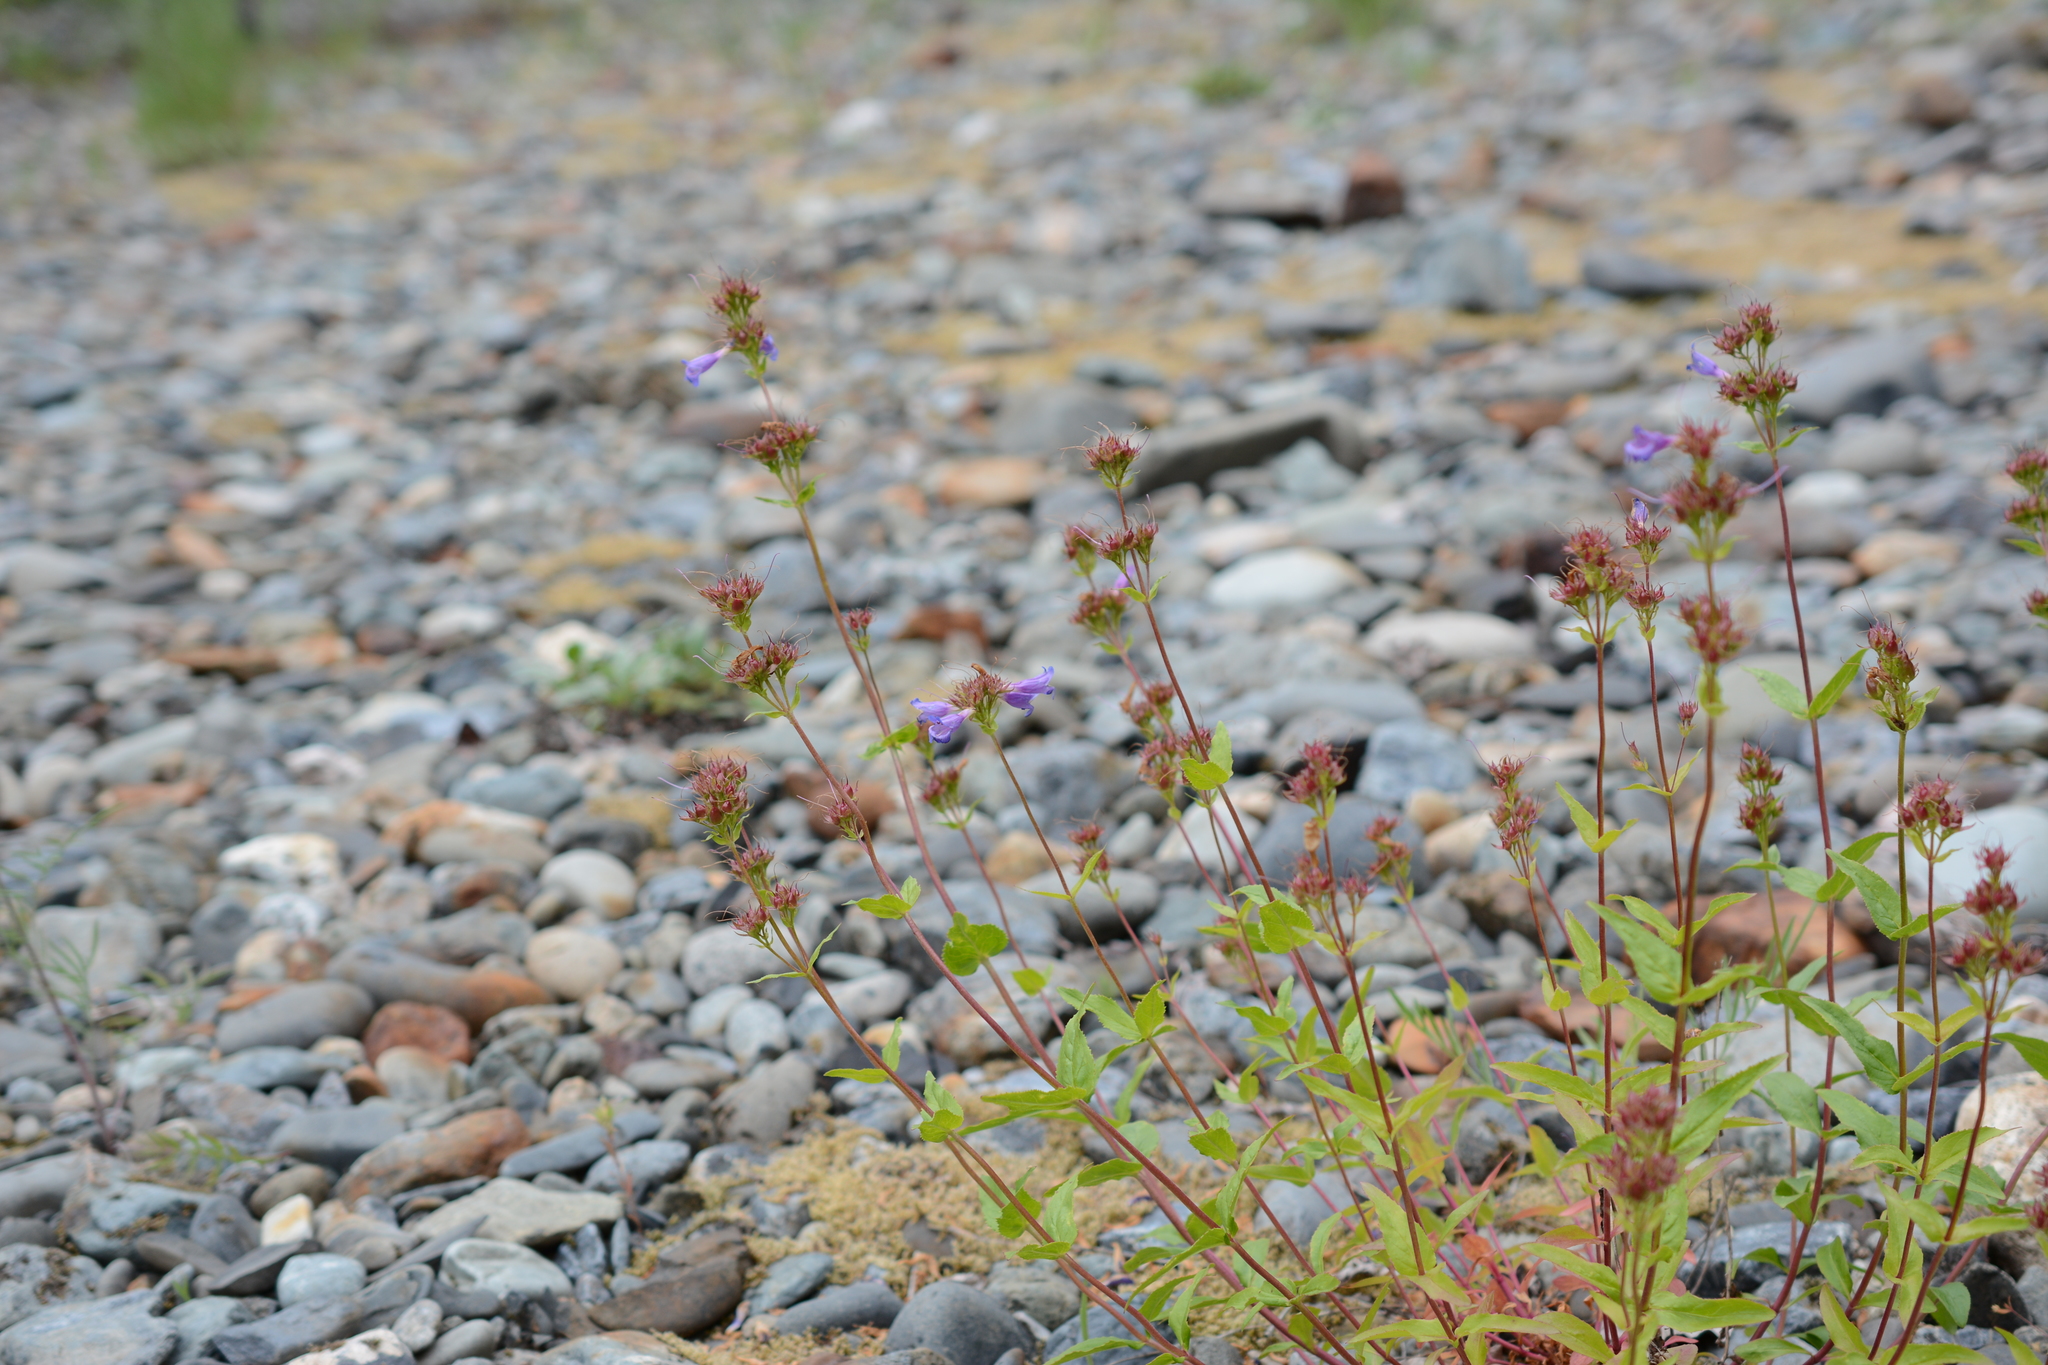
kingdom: Plantae
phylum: Tracheophyta
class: Magnoliopsida
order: Lamiales
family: Plantaginaceae
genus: Penstemon
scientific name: Penstemon serrulatus
